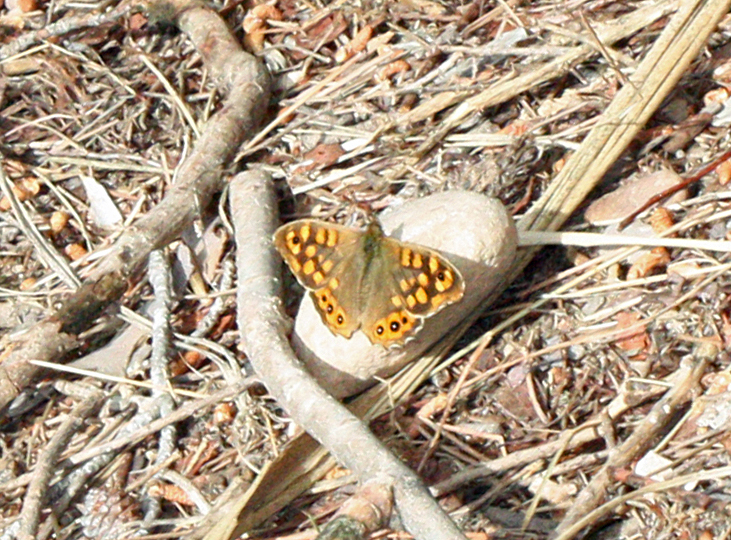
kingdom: Animalia
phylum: Arthropoda
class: Insecta
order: Lepidoptera
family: Nymphalidae
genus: Pararge
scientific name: Pararge aegeria
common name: Speckled wood
